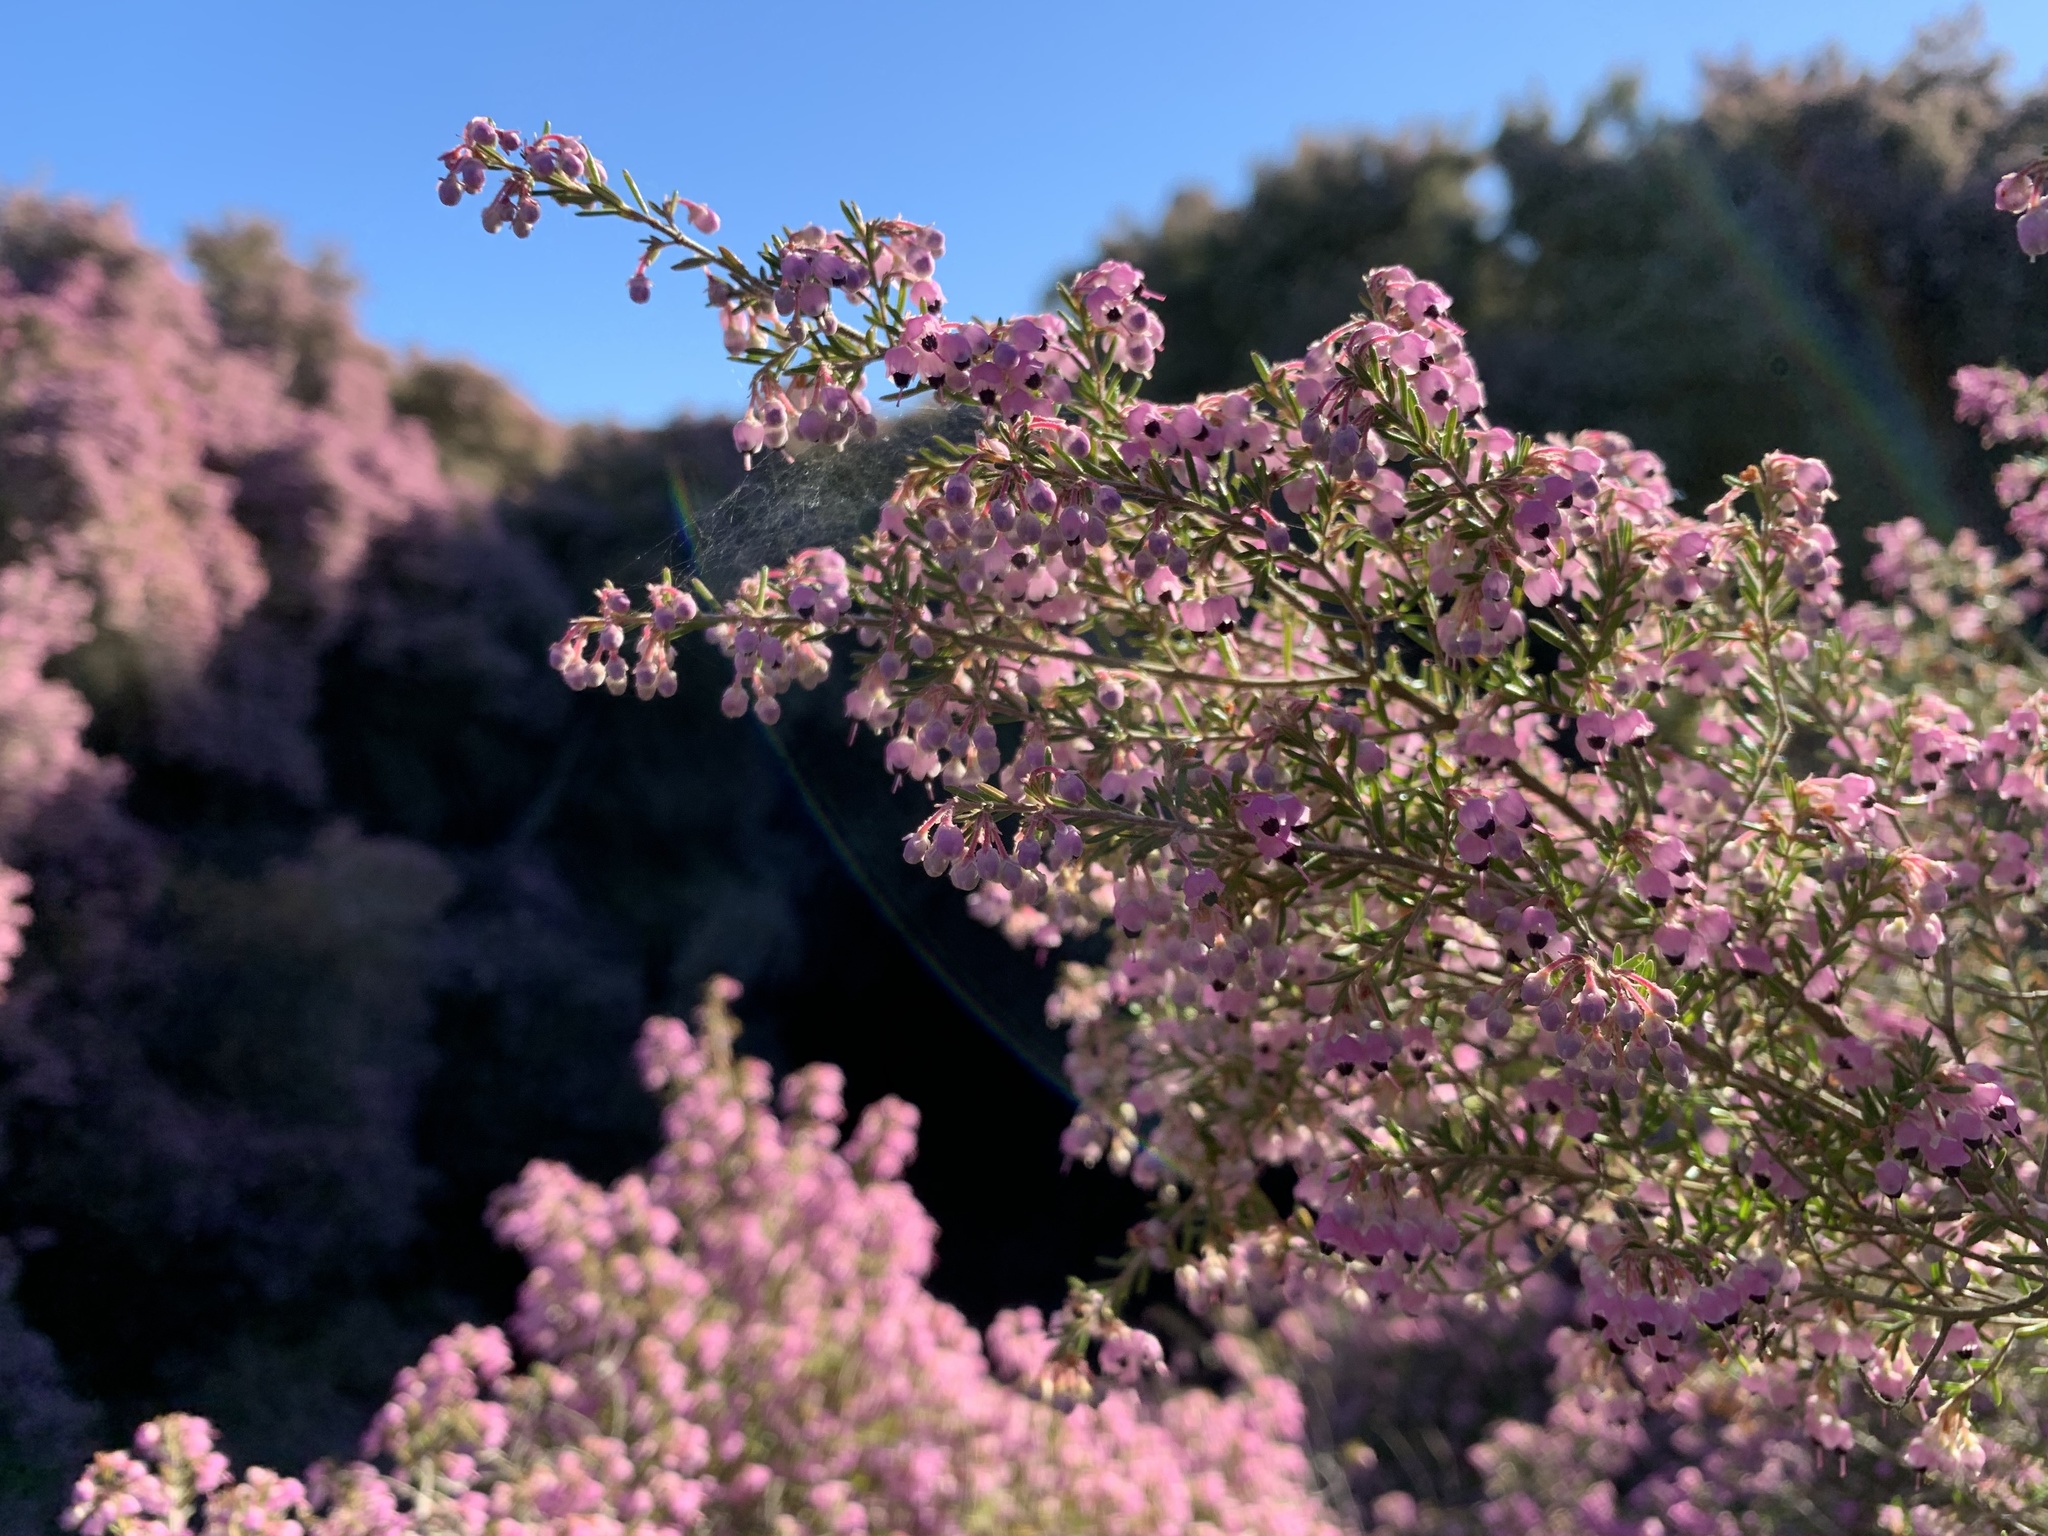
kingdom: Plantae
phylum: Tracheophyta
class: Magnoliopsida
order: Ericales
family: Ericaceae
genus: Erica
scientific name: Erica canaliculata
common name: Hairy grey heather
